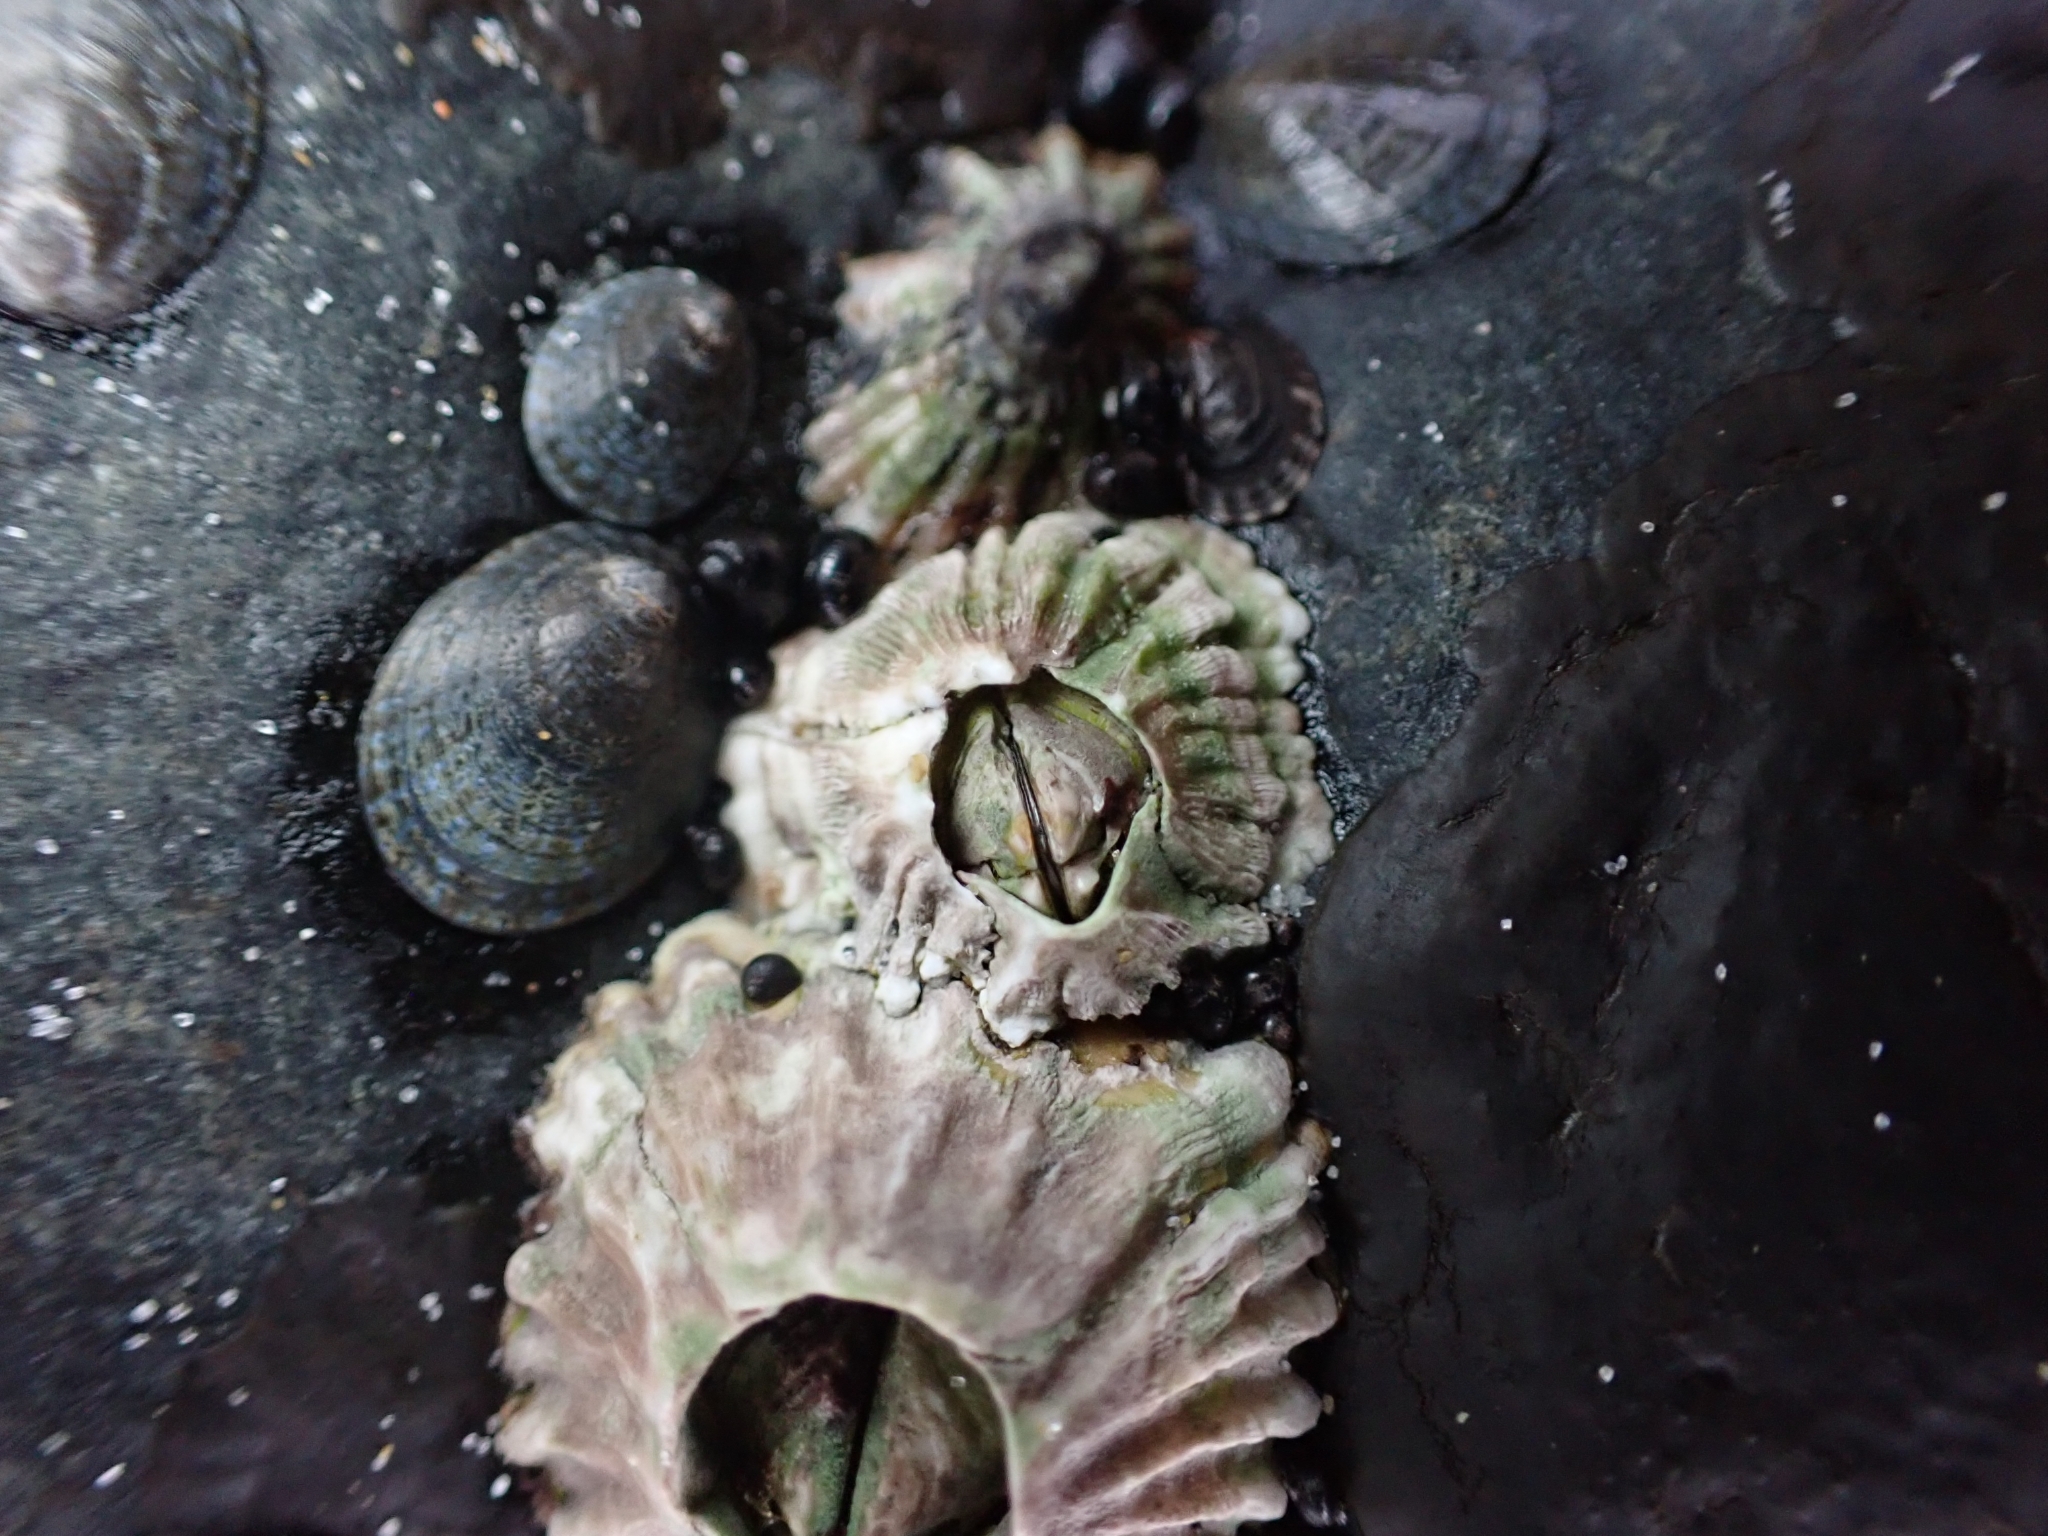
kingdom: Animalia
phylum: Arthropoda
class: Maxillopoda
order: Sessilia
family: Tetraclitidae
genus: Epopella
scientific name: Epopella plicata
